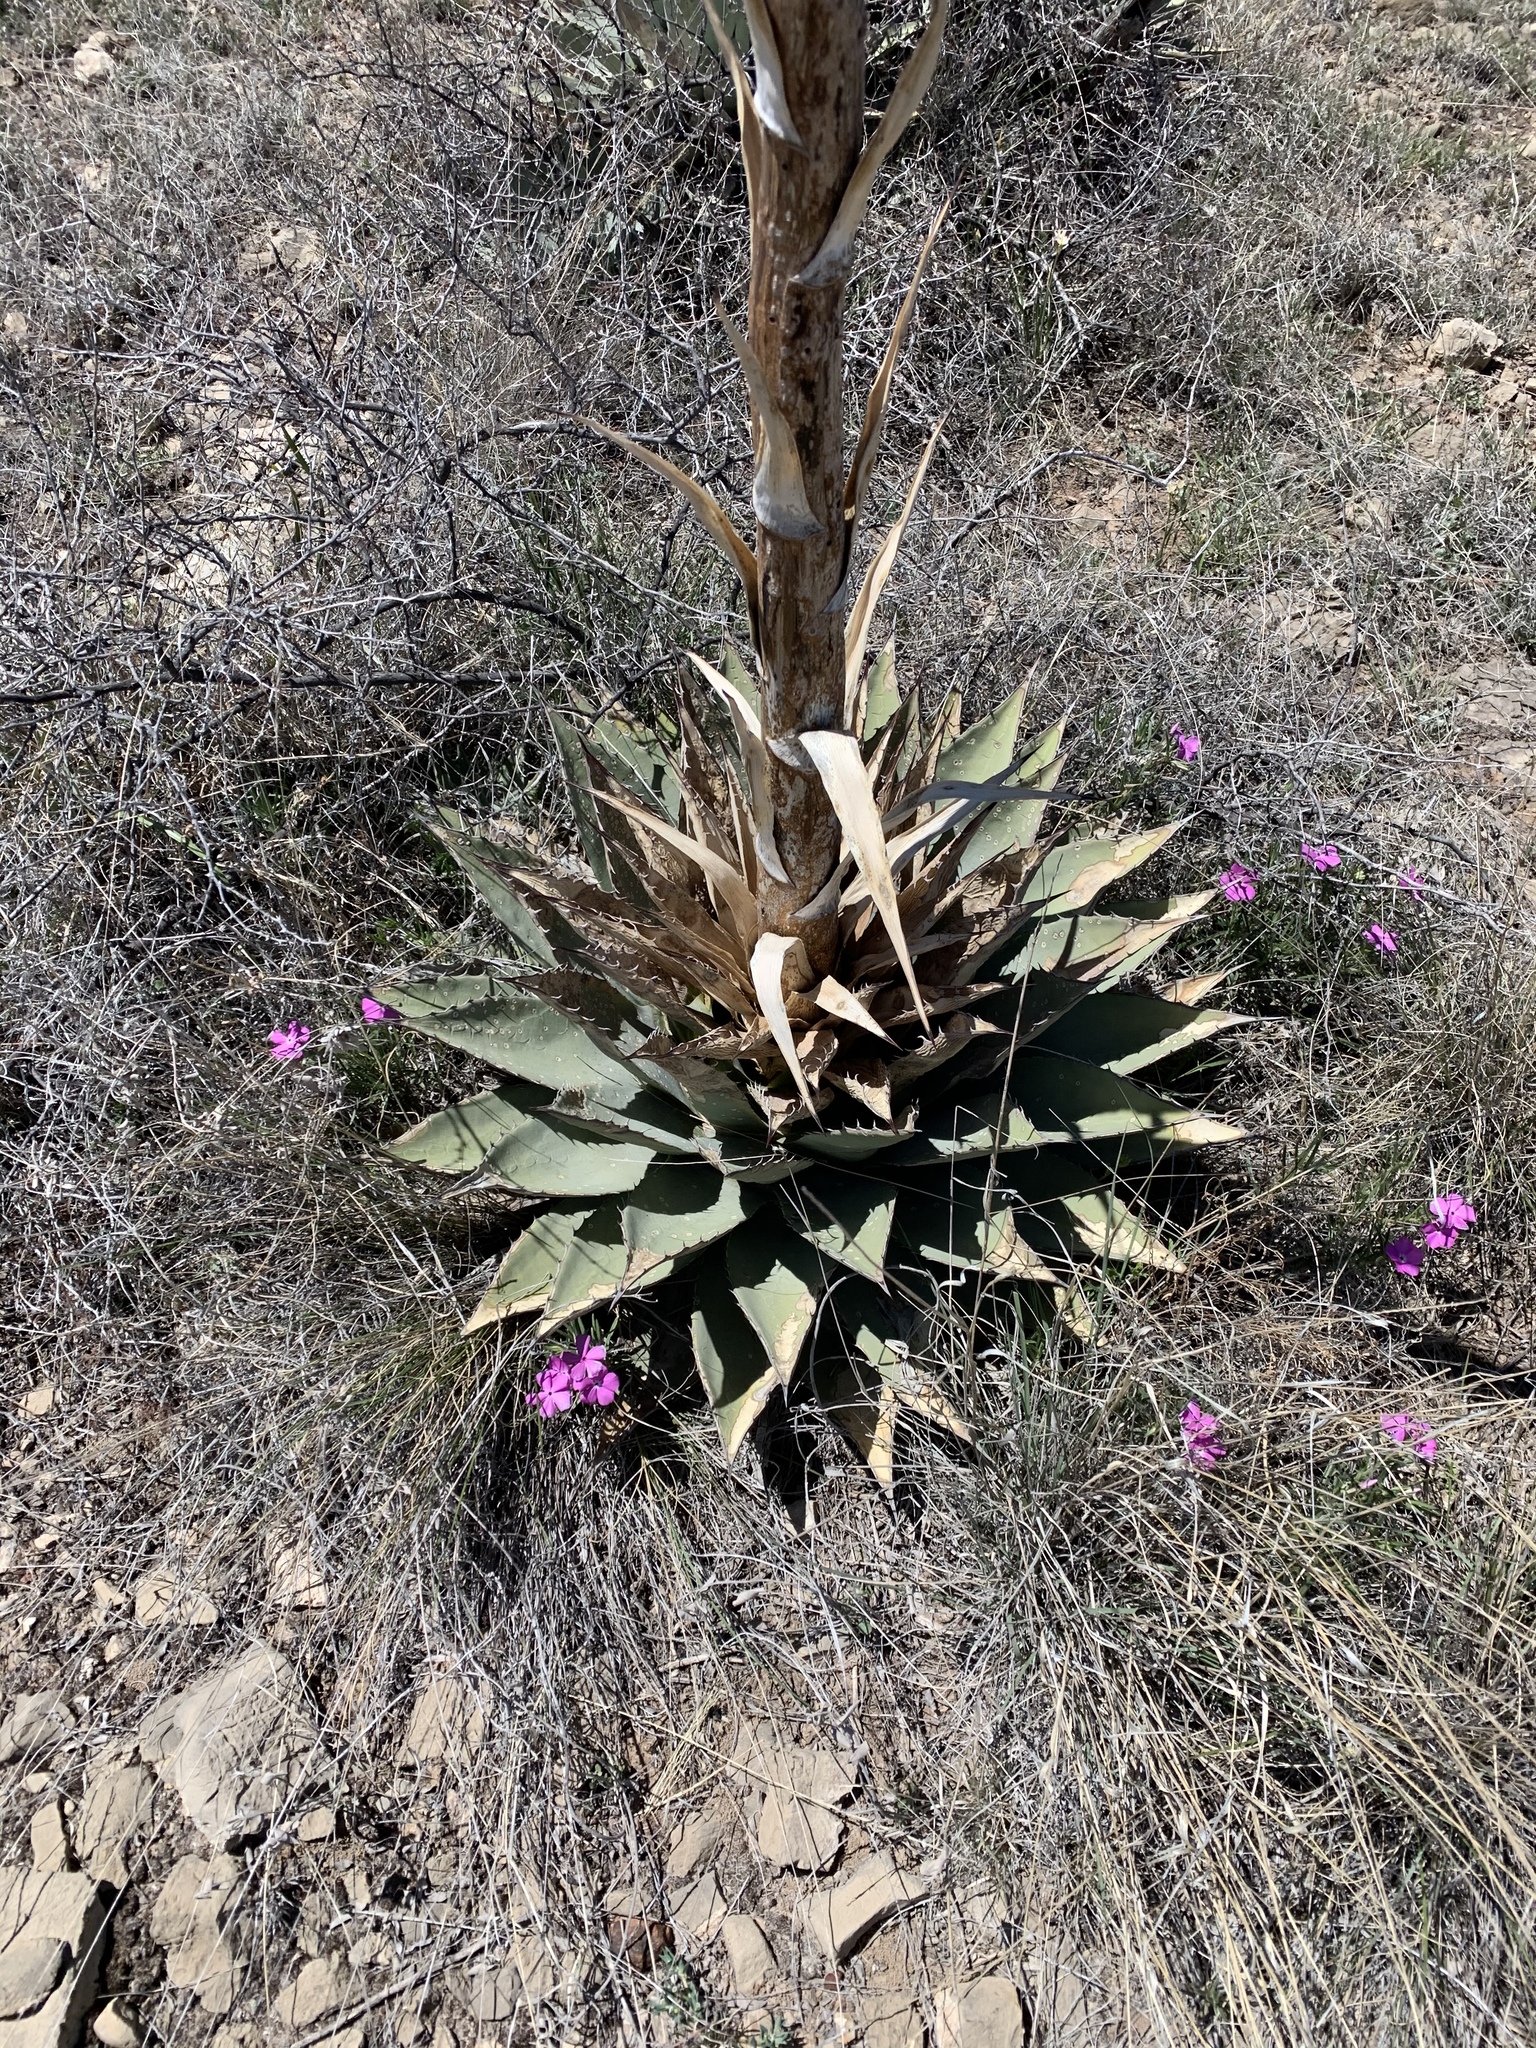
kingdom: Plantae
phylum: Tracheophyta
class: Liliopsida
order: Asparagales
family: Asparagaceae
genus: Agave
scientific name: Agave parryi
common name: Parry's agave
